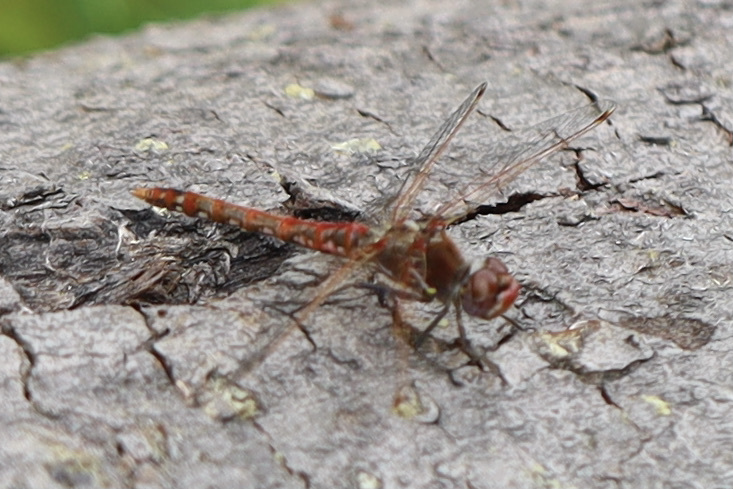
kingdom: Animalia
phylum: Arthropoda
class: Insecta
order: Odonata
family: Libellulidae
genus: Sympetrum
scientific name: Sympetrum corruptum
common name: Variegated meadowhawk
